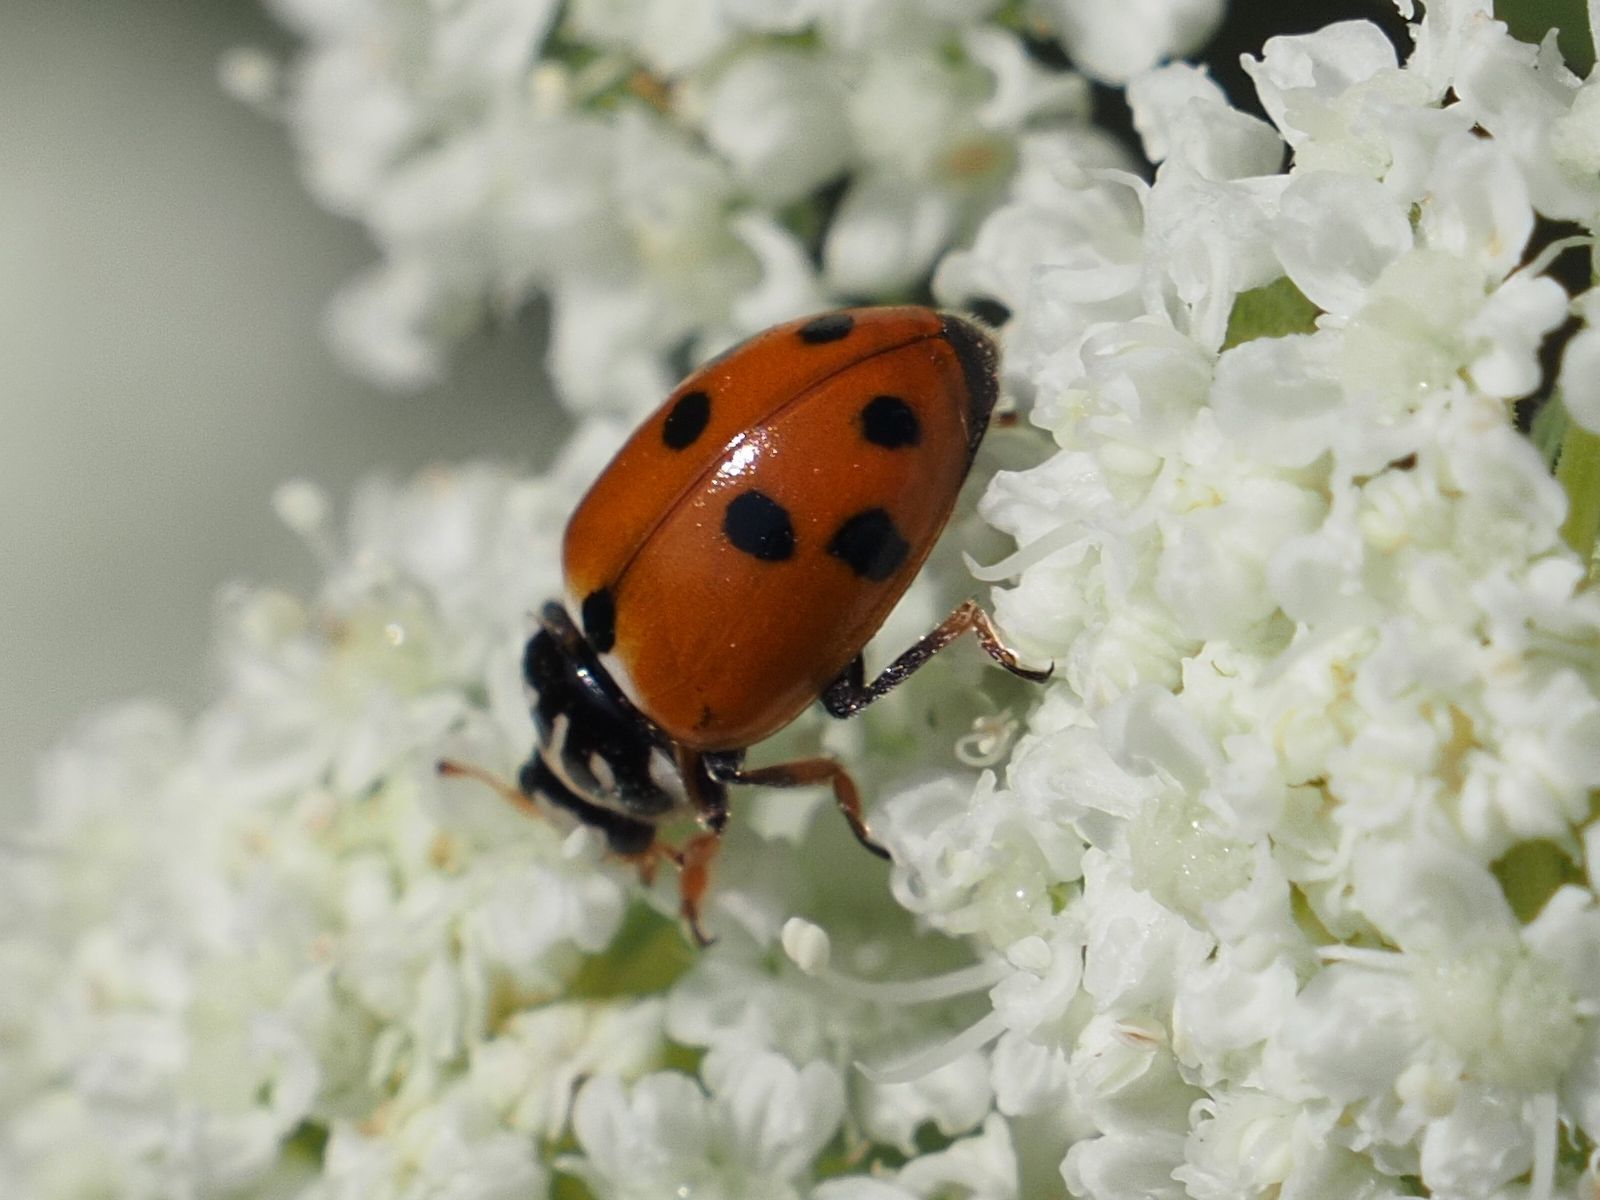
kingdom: Animalia
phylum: Arthropoda
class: Insecta
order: Coleoptera
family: Coccinellidae
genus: Hippodamia
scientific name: Hippodamia variegata
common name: Ladybird beetle
